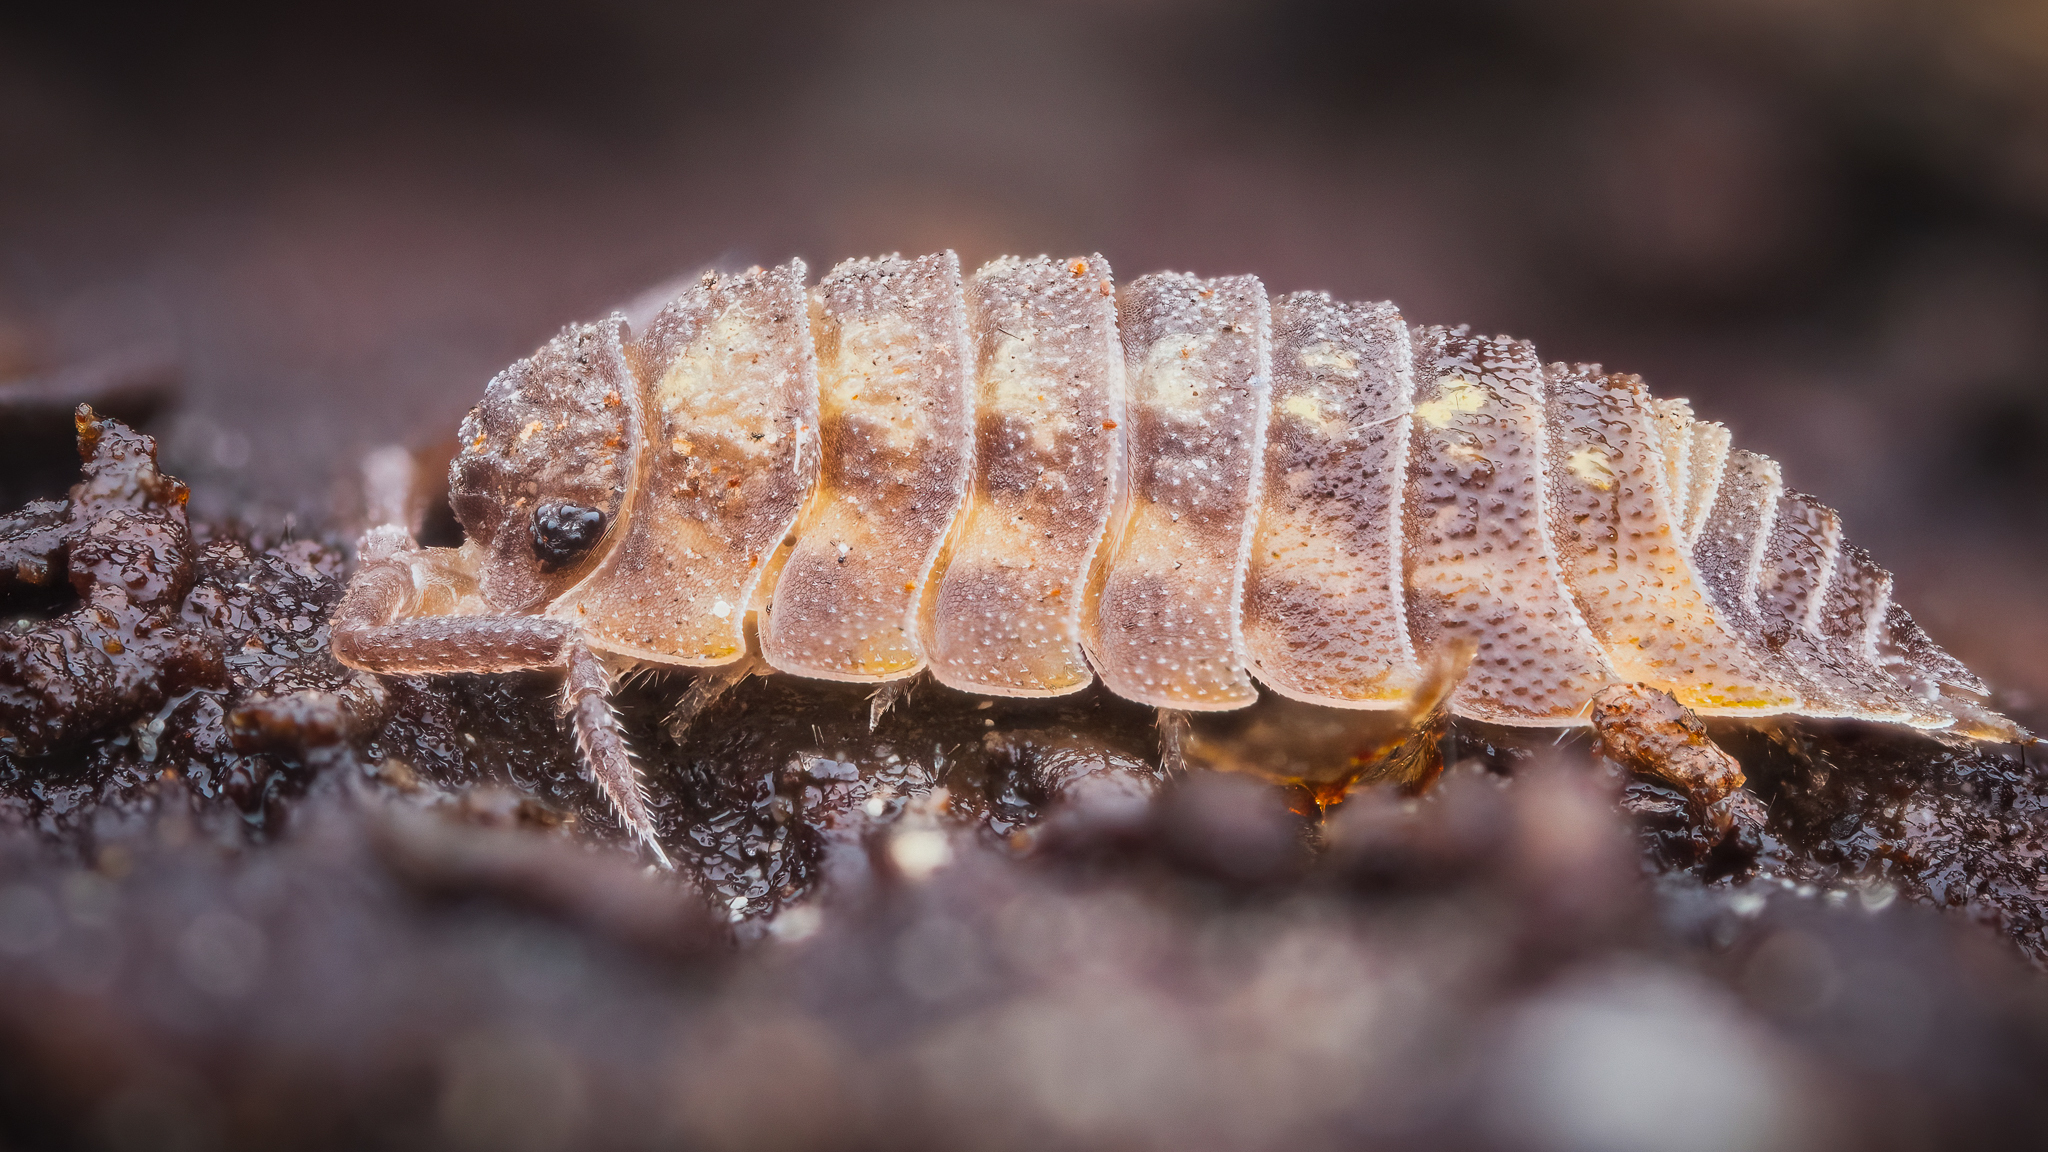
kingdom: Animalia
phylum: Arthropoda
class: Malacostraca
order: Isopoda
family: Oniscidae
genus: Oniscus
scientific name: Oniscus asellus
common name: Common shiny woodlouse
